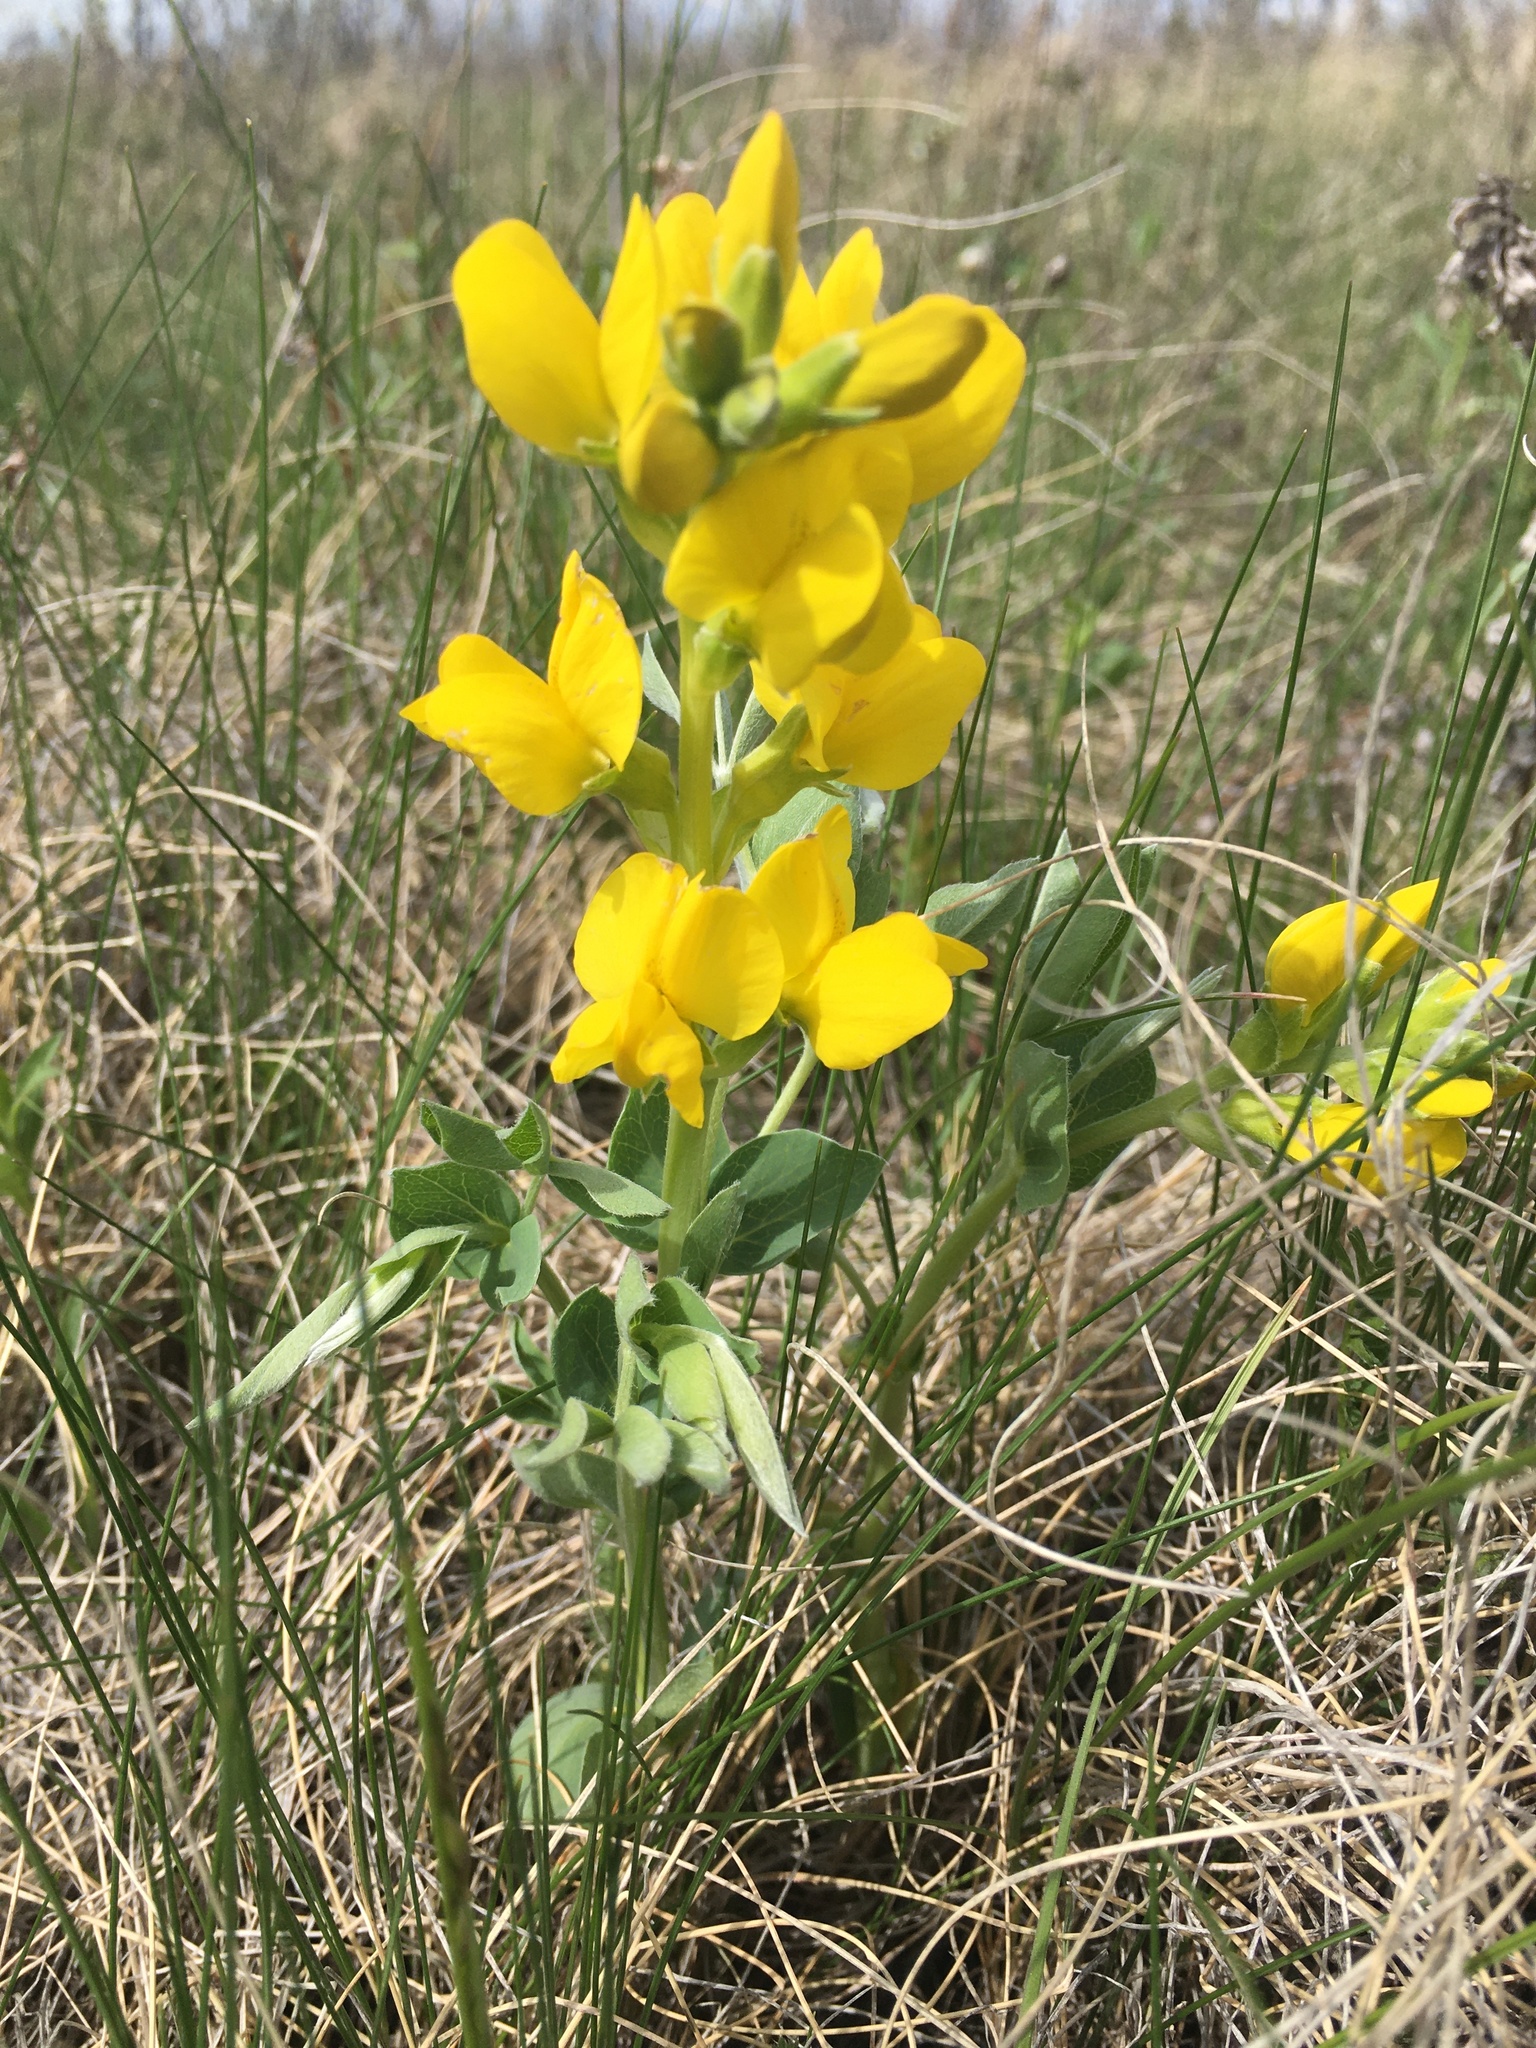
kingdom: Plantae
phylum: Tracheophyta
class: Magnoliopsida
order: Fabales
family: Fabaceae
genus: Thermopsis
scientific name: Thermopsis rhombifolia
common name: Circle-pod-pea
